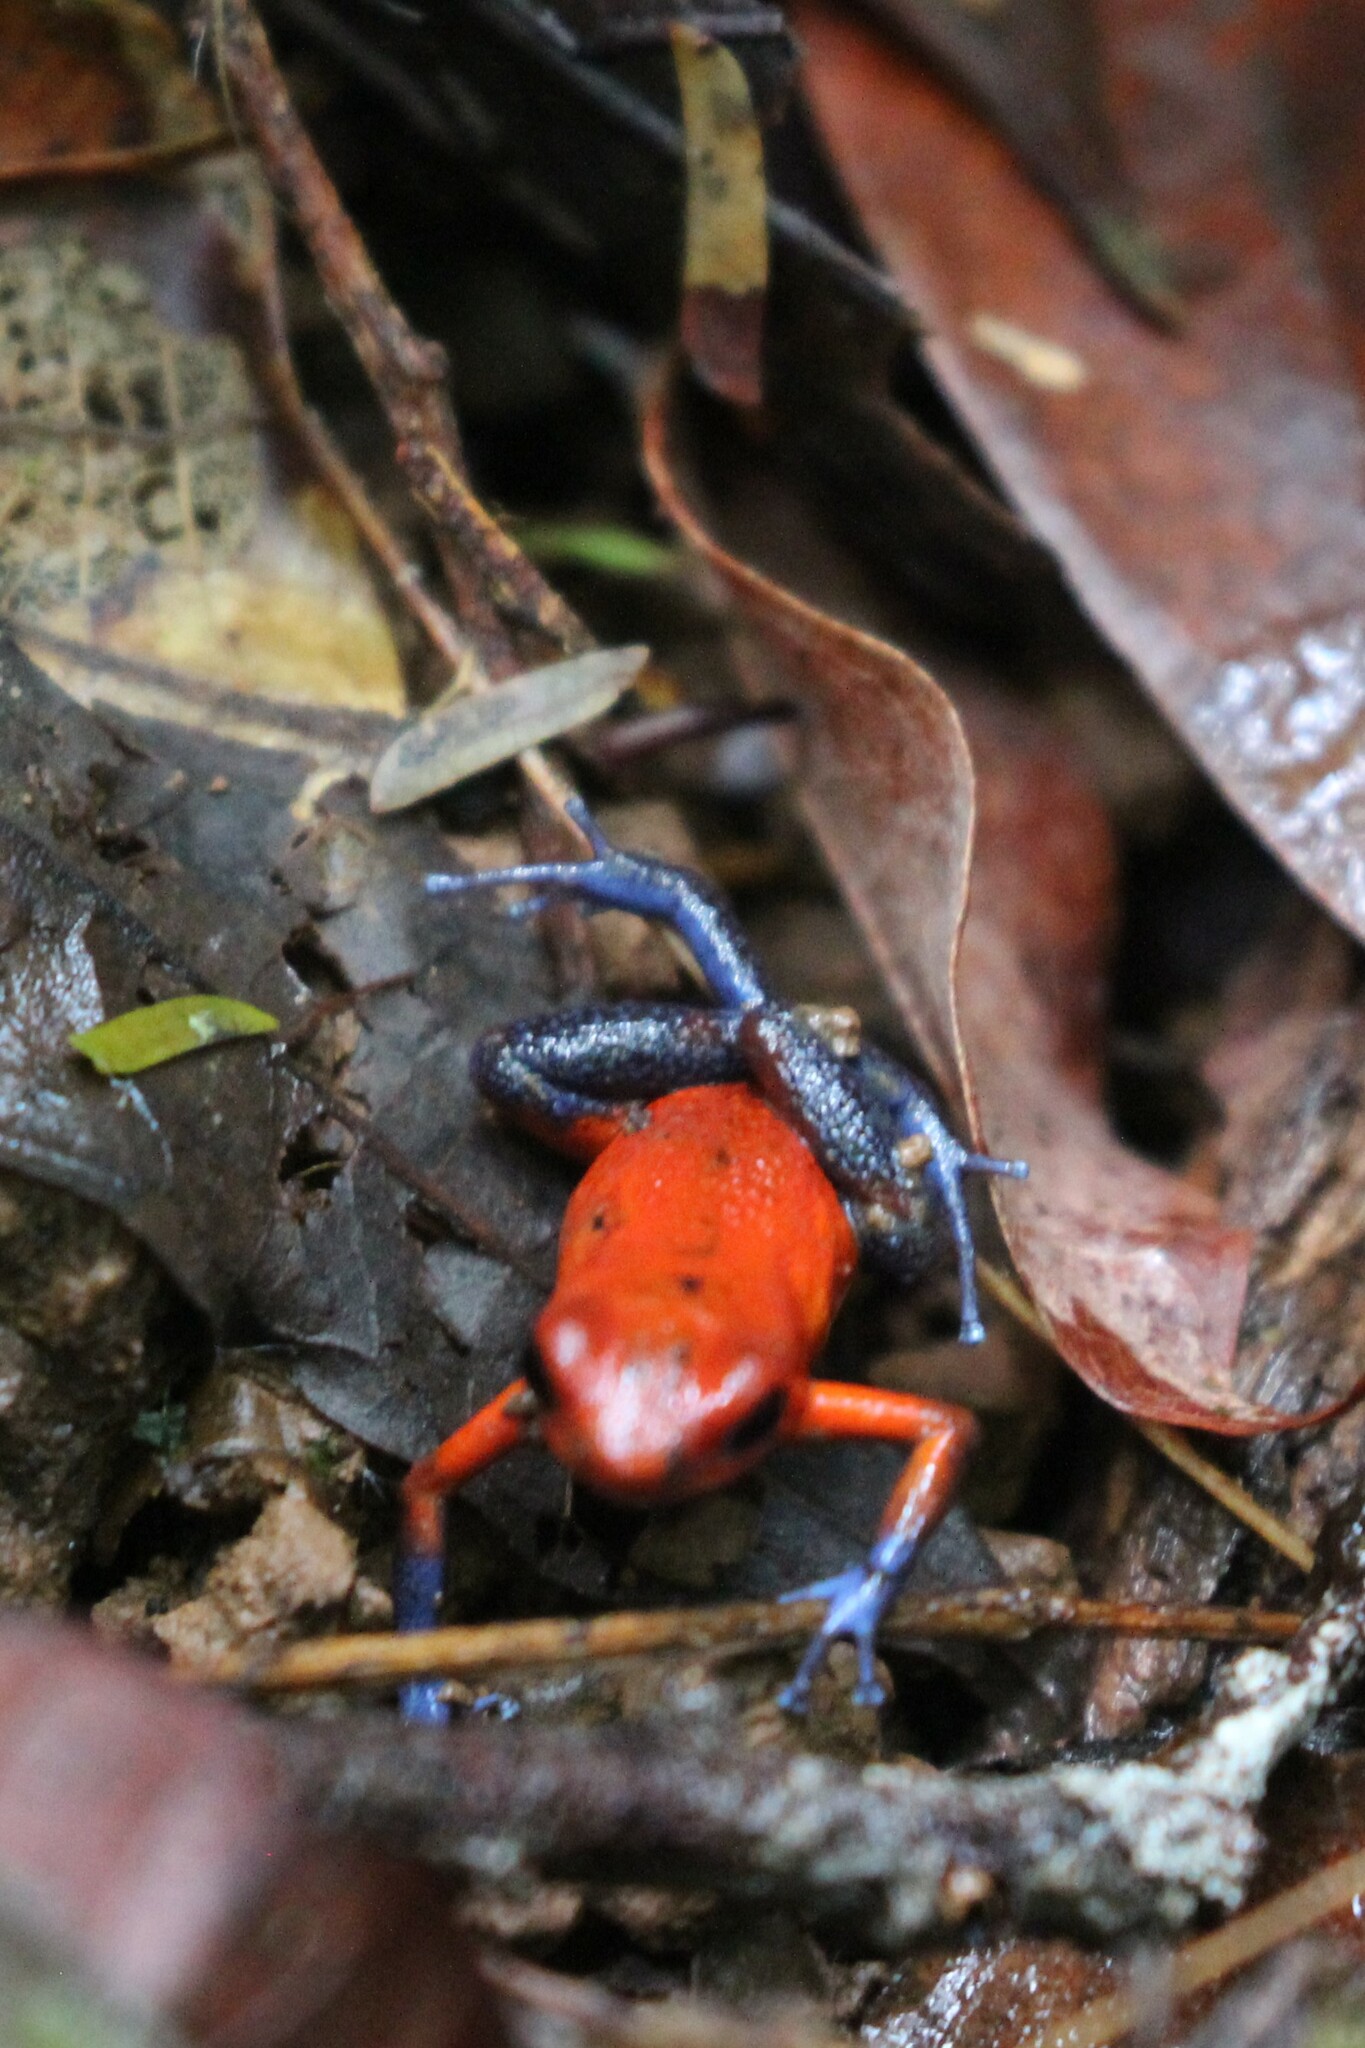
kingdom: Animalia
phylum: Chordata
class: Amphibia
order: Anura
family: Dendrobatidae
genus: Oophaga
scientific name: Oophaga pumilio
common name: Flaming poison frog
